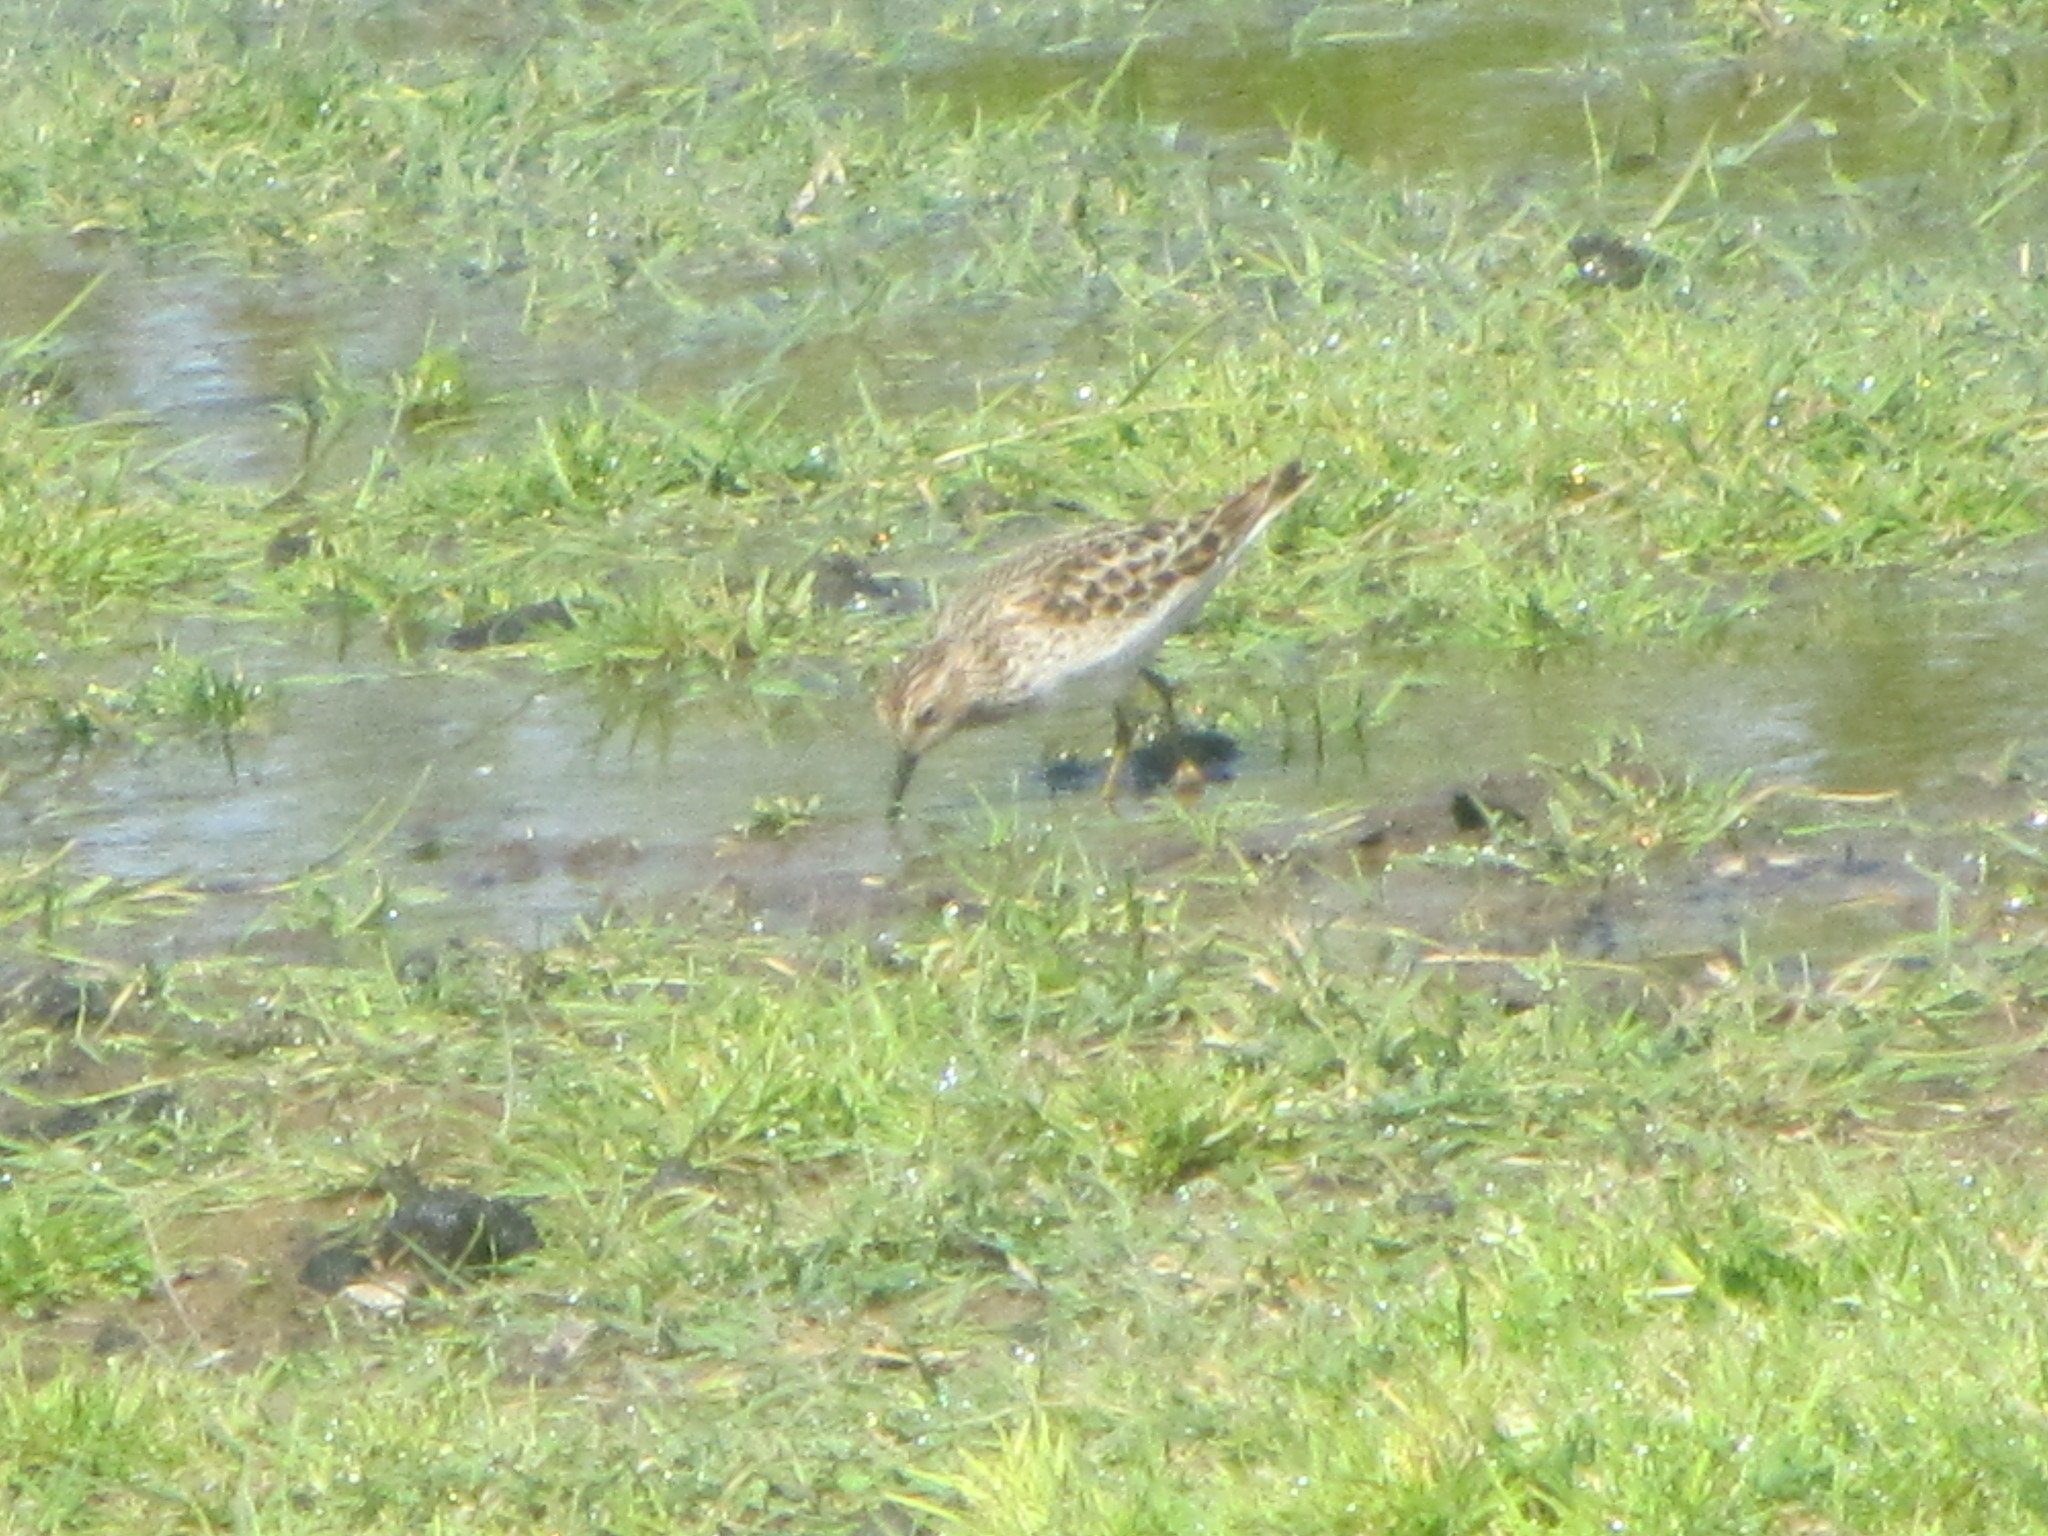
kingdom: Animalia
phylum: Chordata
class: Aves
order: Charadriiformes
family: Scolopacidae
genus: Calidris
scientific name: Calidris minutilla
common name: Least sandpiper
